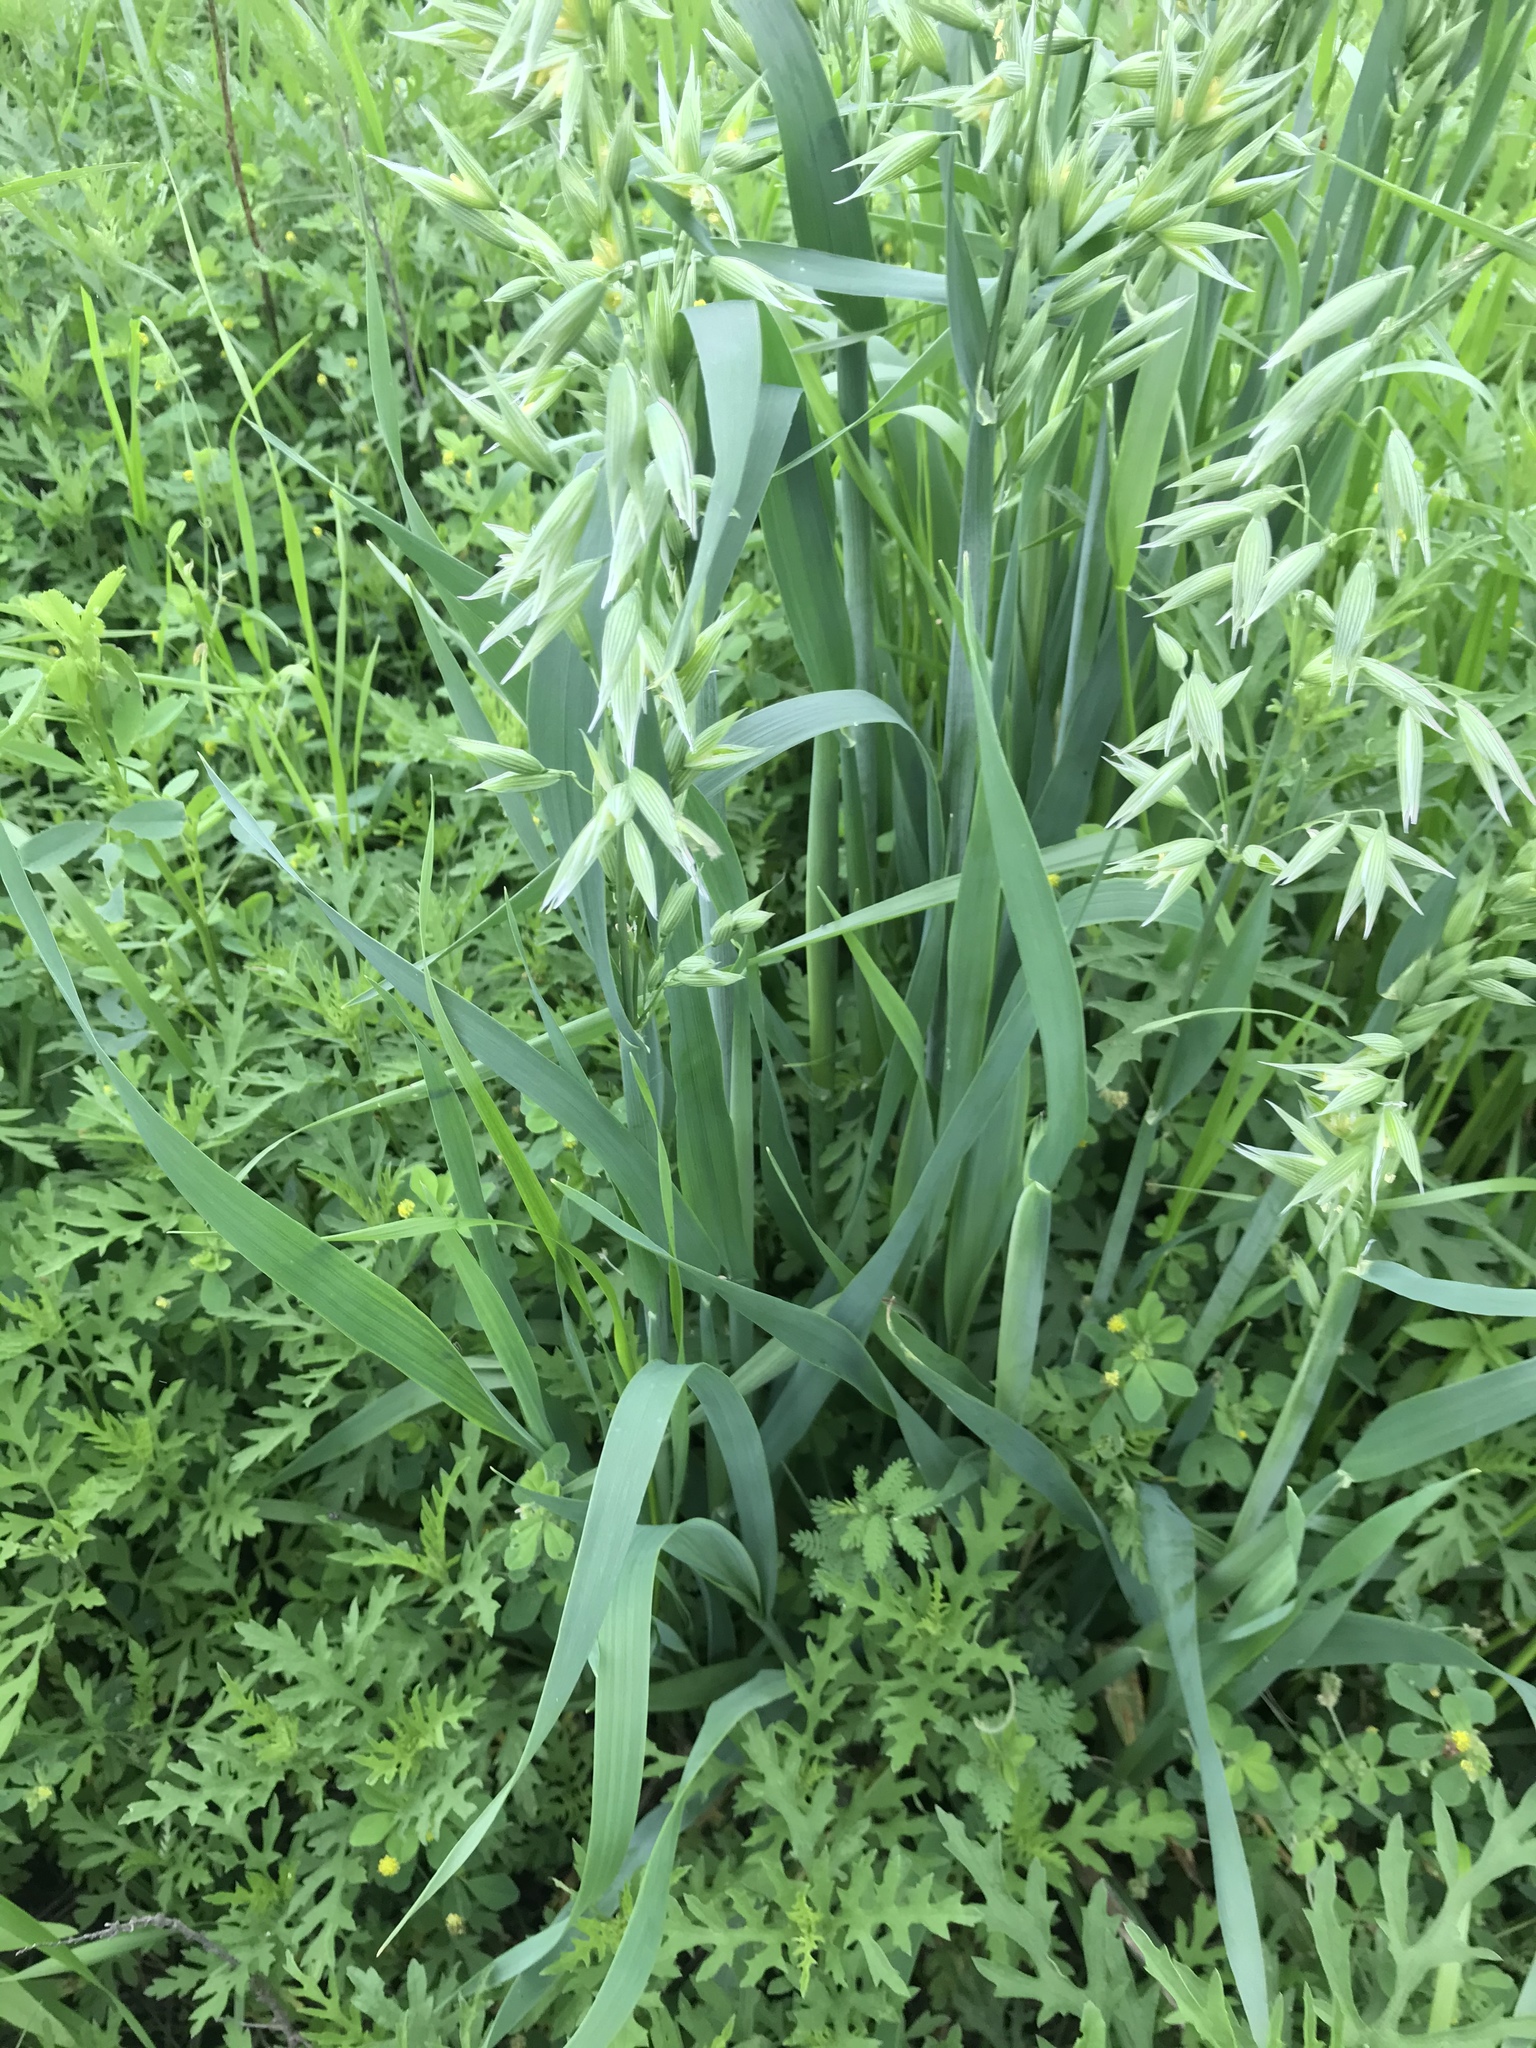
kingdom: Plantae
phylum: Tracheophyta
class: Liliopsida
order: Poales
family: Poaceae
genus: Avena
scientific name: Avena sativa
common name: Oat
